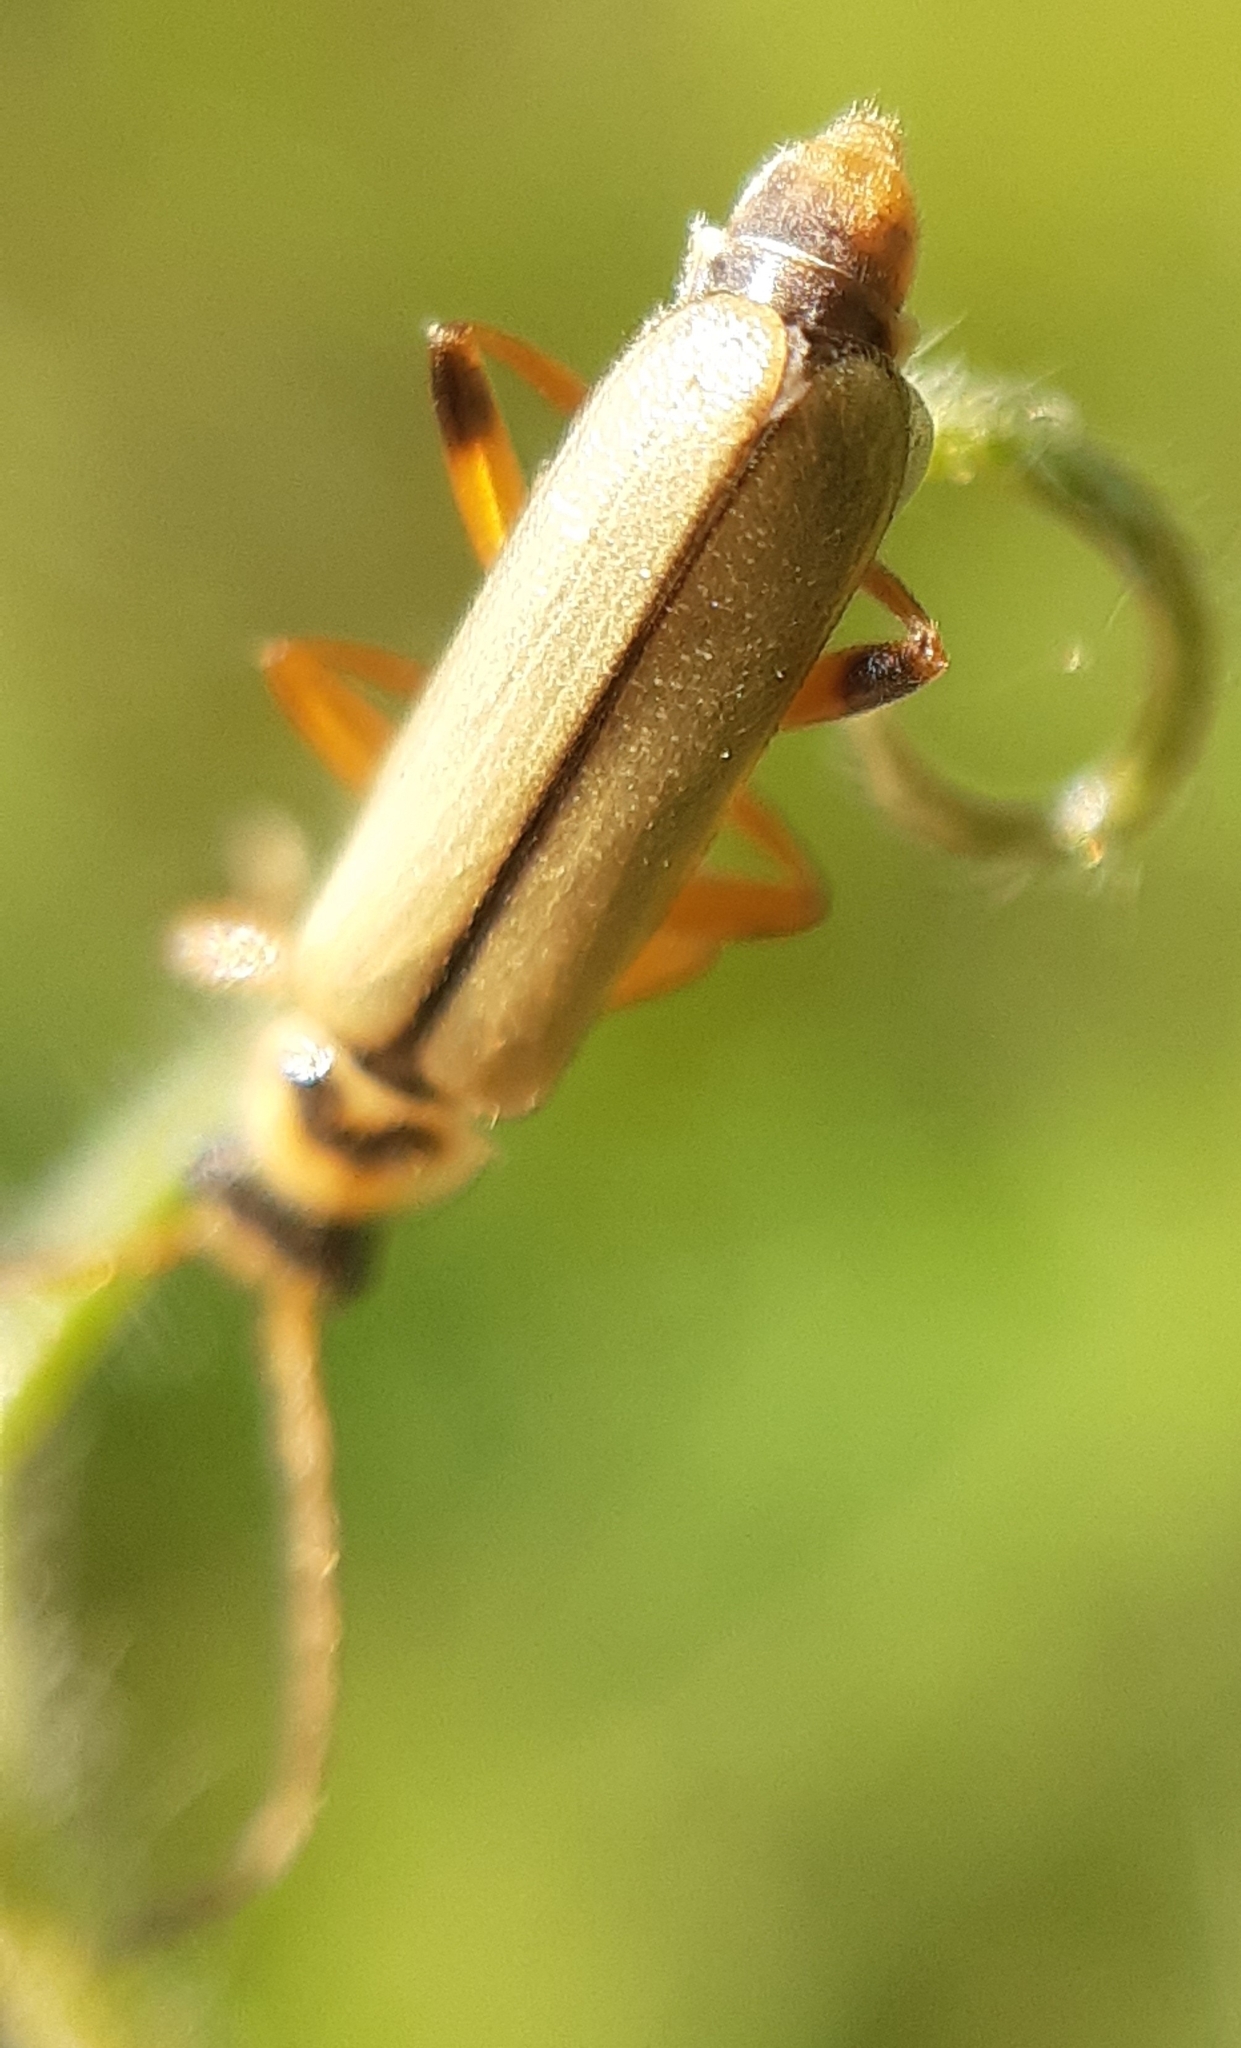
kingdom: Animalia
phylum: Arthropoda
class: Insecta
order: Coleoptera
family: Cantharidae
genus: Metacantharis
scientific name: Metacantharis clypeata
